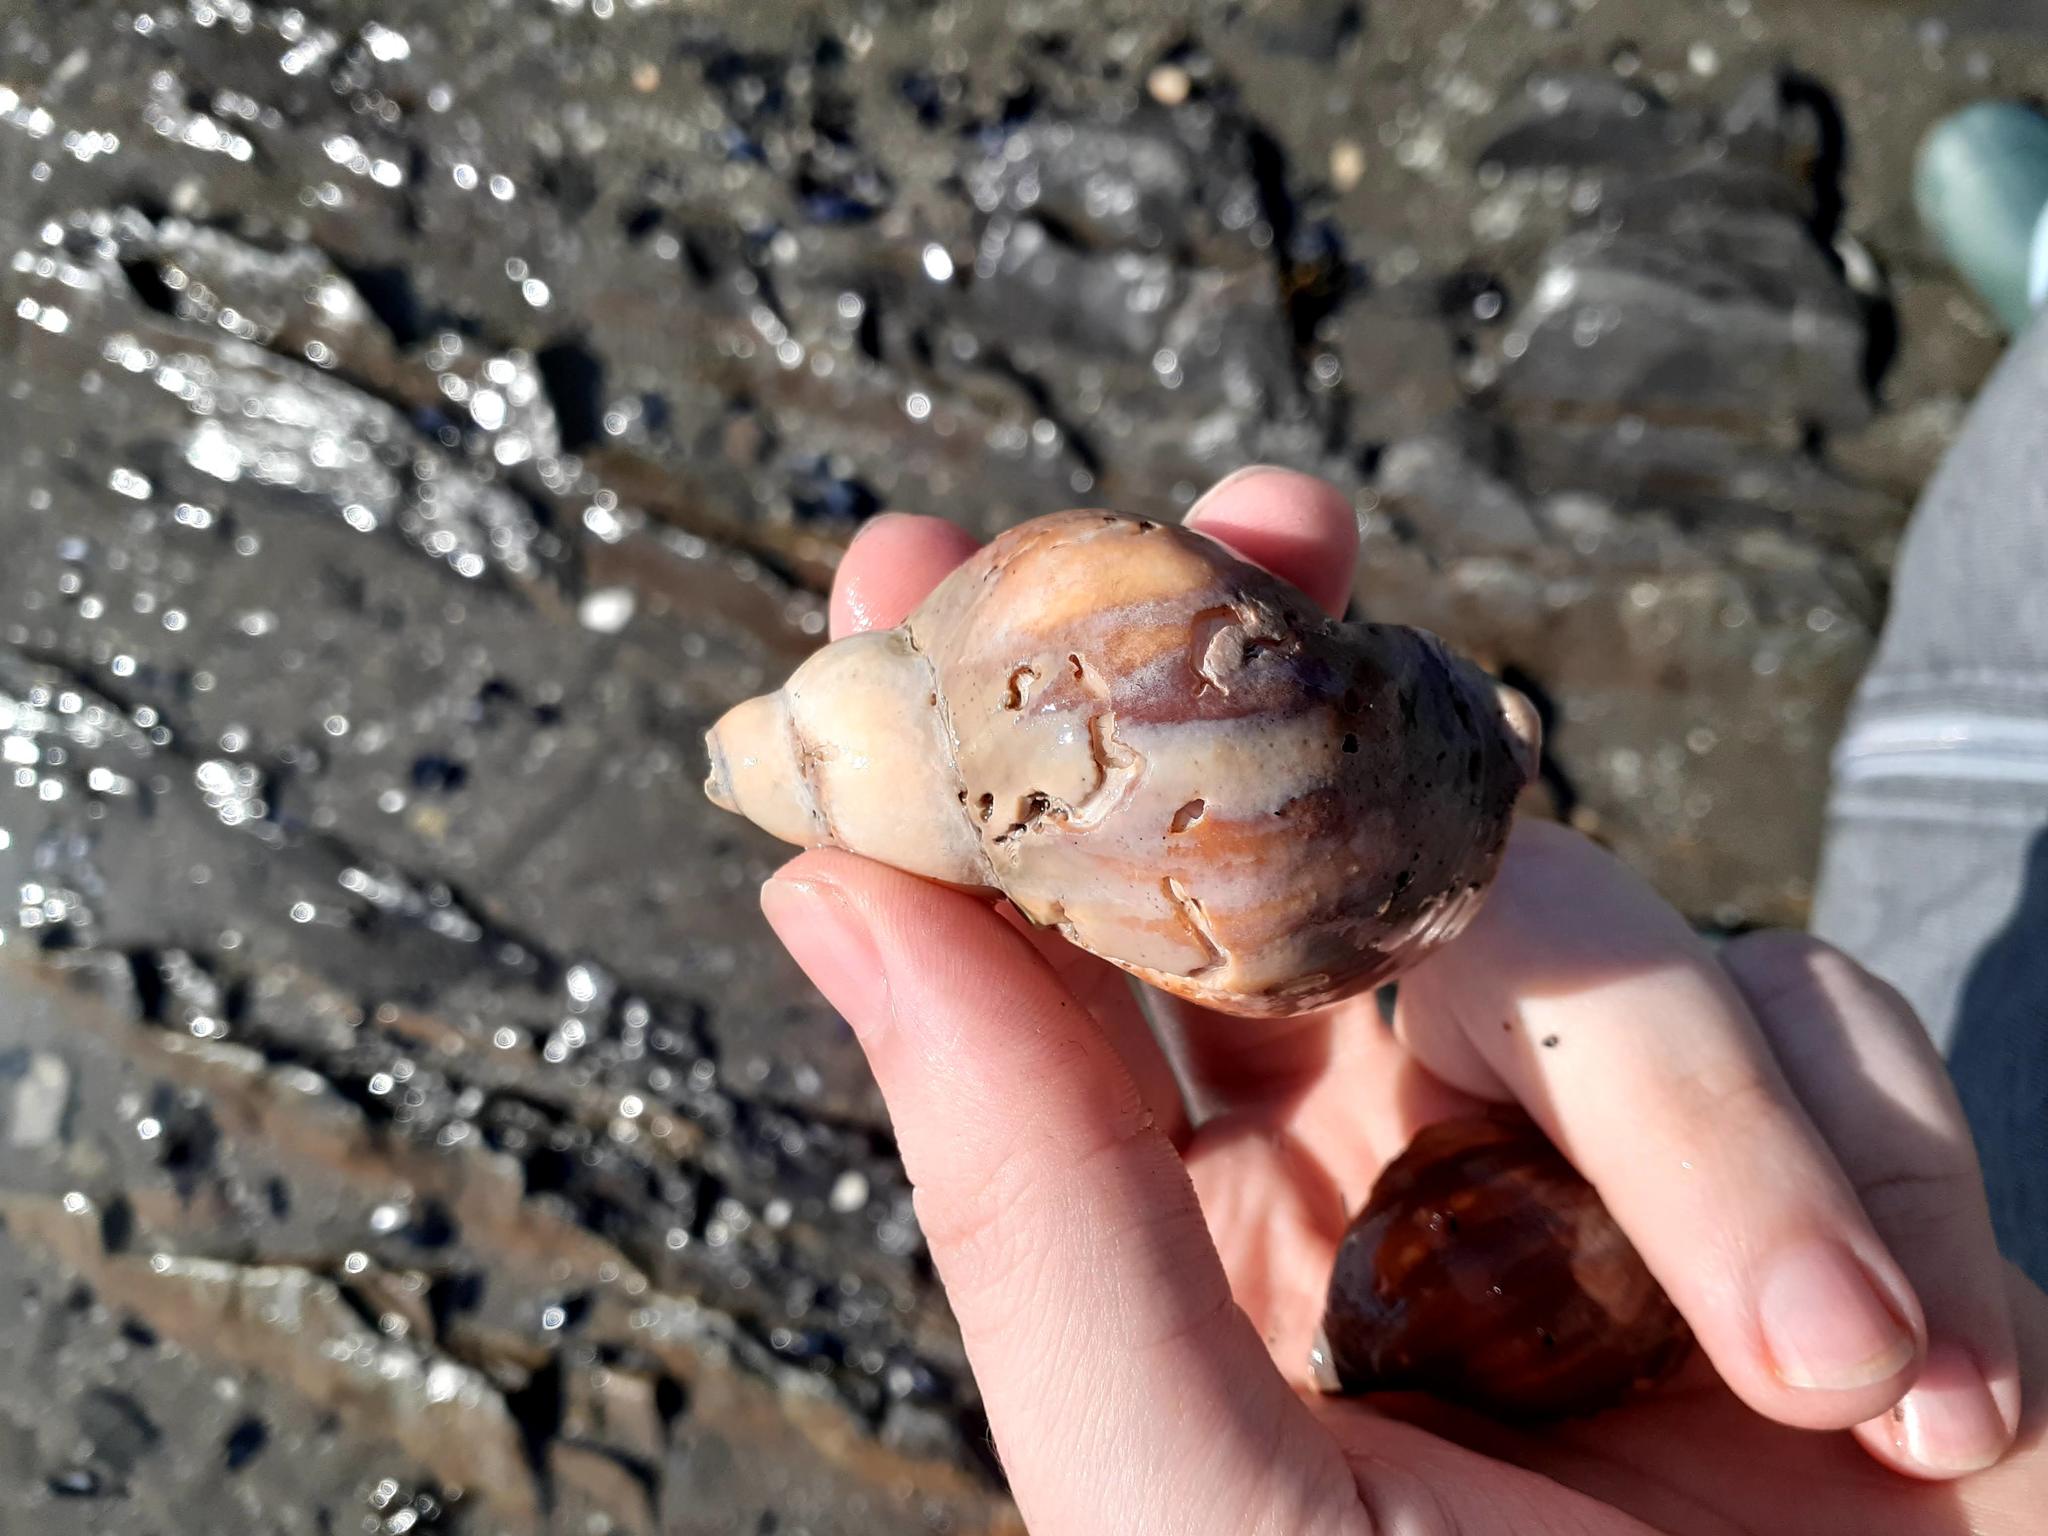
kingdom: Animalia
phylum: Mollusca
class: Gastropoda
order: Neogastropoda
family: Buccinidae
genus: Buccinum
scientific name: Buccinum undatum
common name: Common whelk
